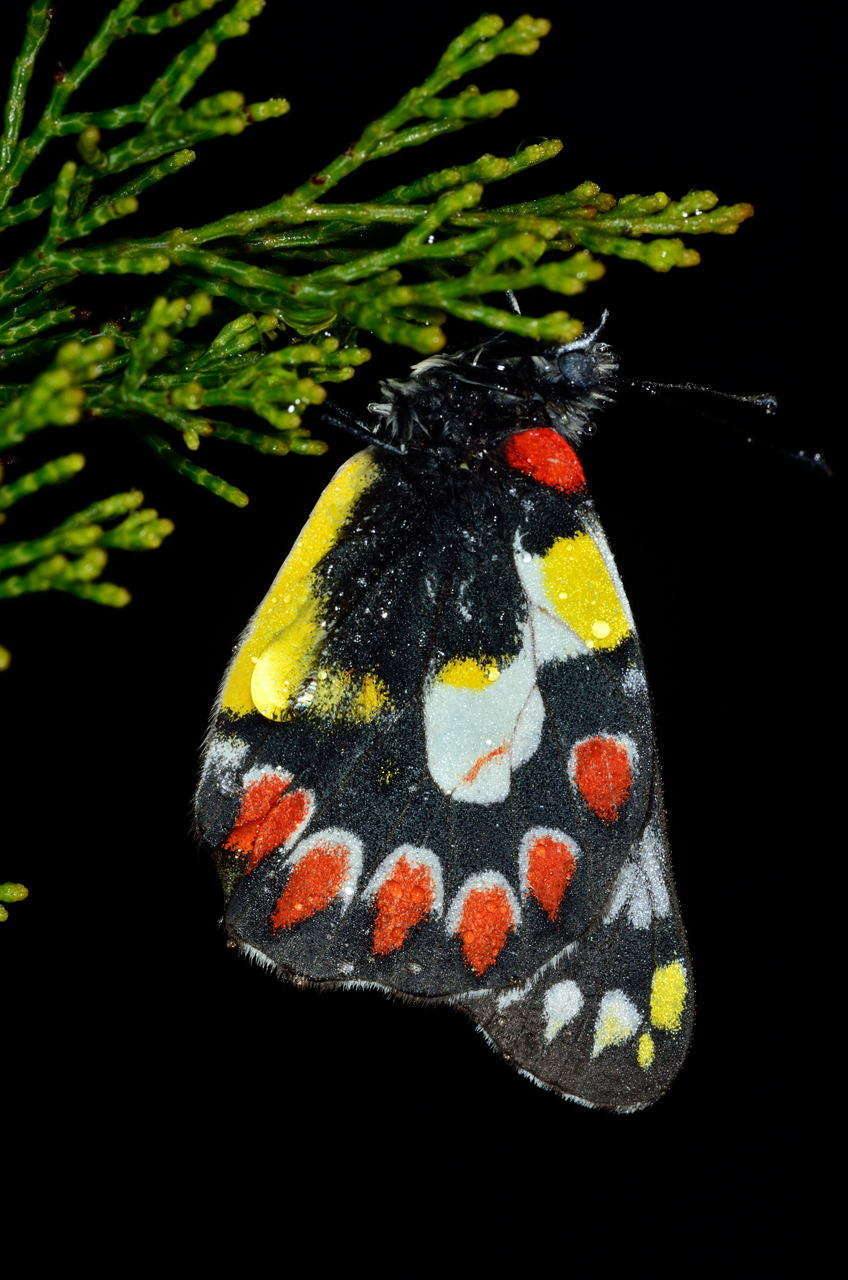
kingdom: Animalia
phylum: Arthropoda
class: Insecta
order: Lepidoptera
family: Pieridae
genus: Delias
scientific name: Delias aganippe
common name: Red-spotted jezebel
